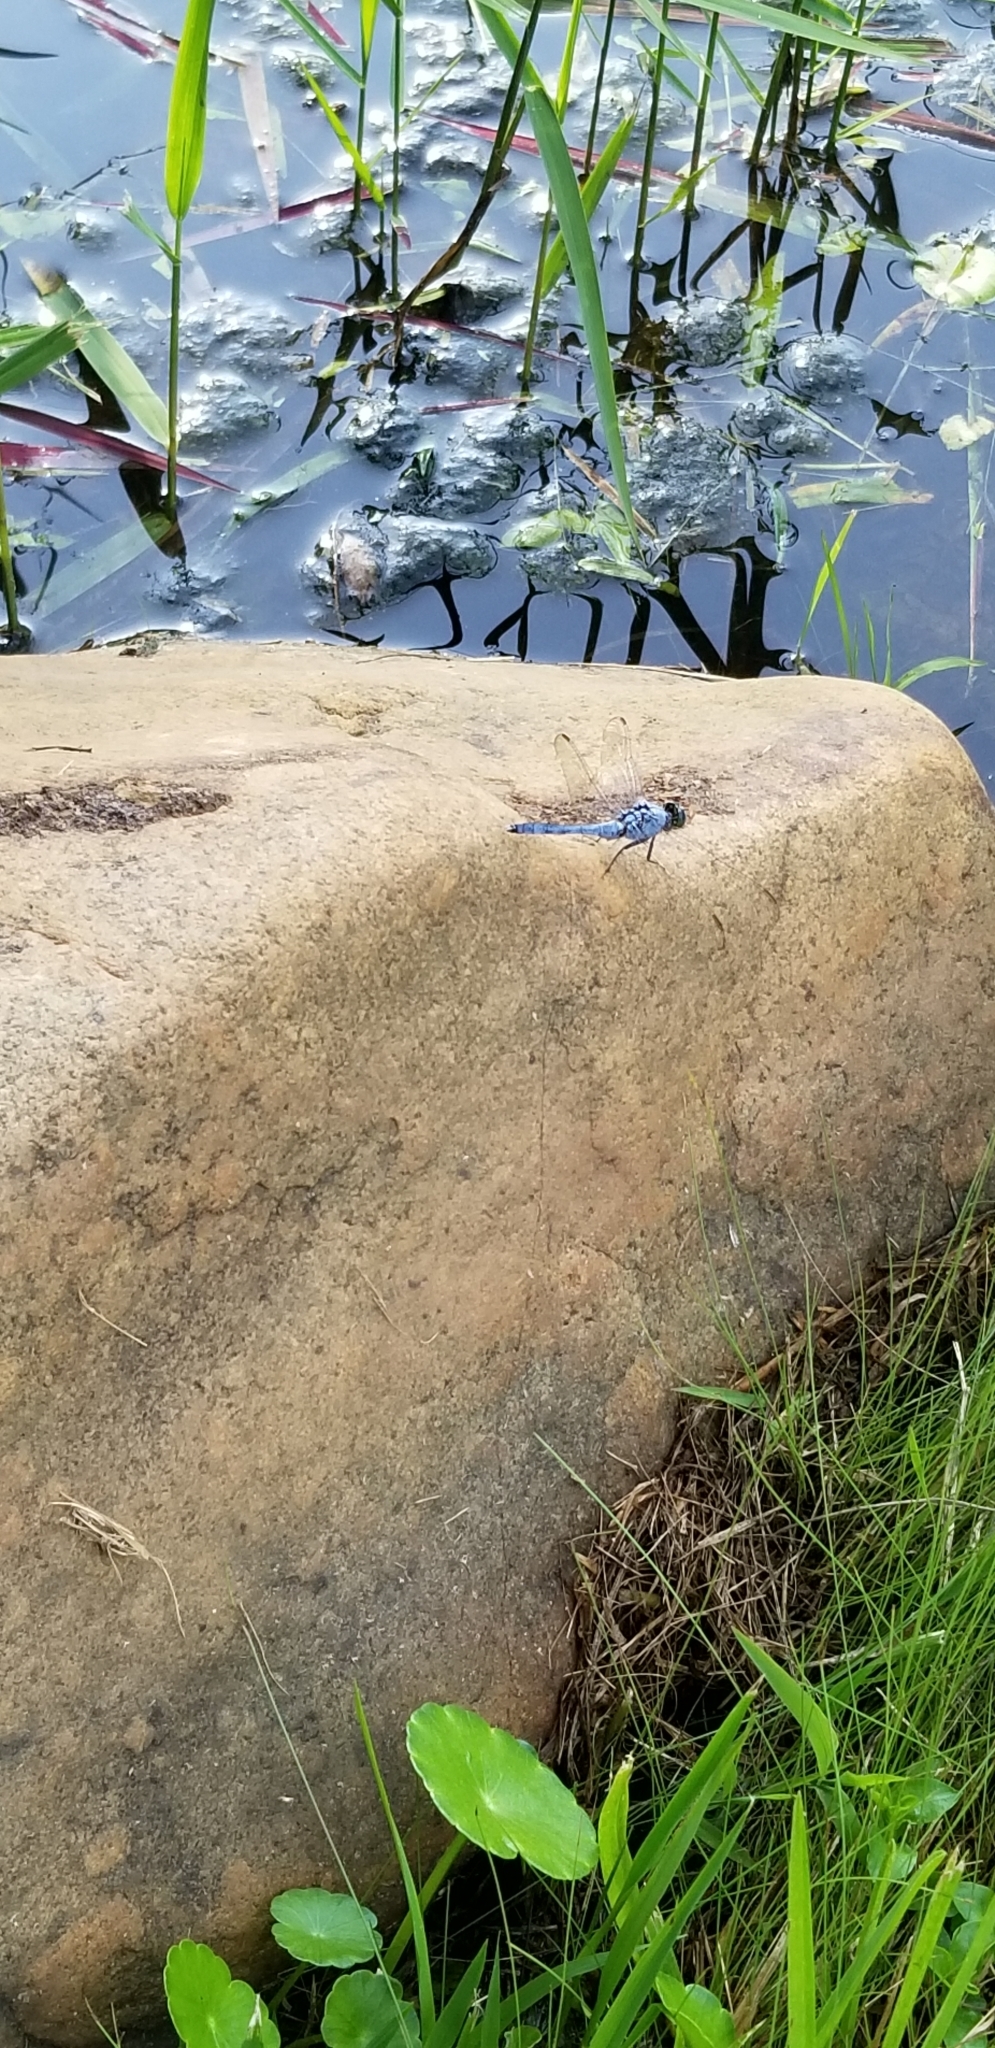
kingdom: Animalia
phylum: Arthropoda
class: Insecta
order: Odonata
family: Libellulidae
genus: Erythemis
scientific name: Erythemis simplicicollis
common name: Eastern pondhawk
